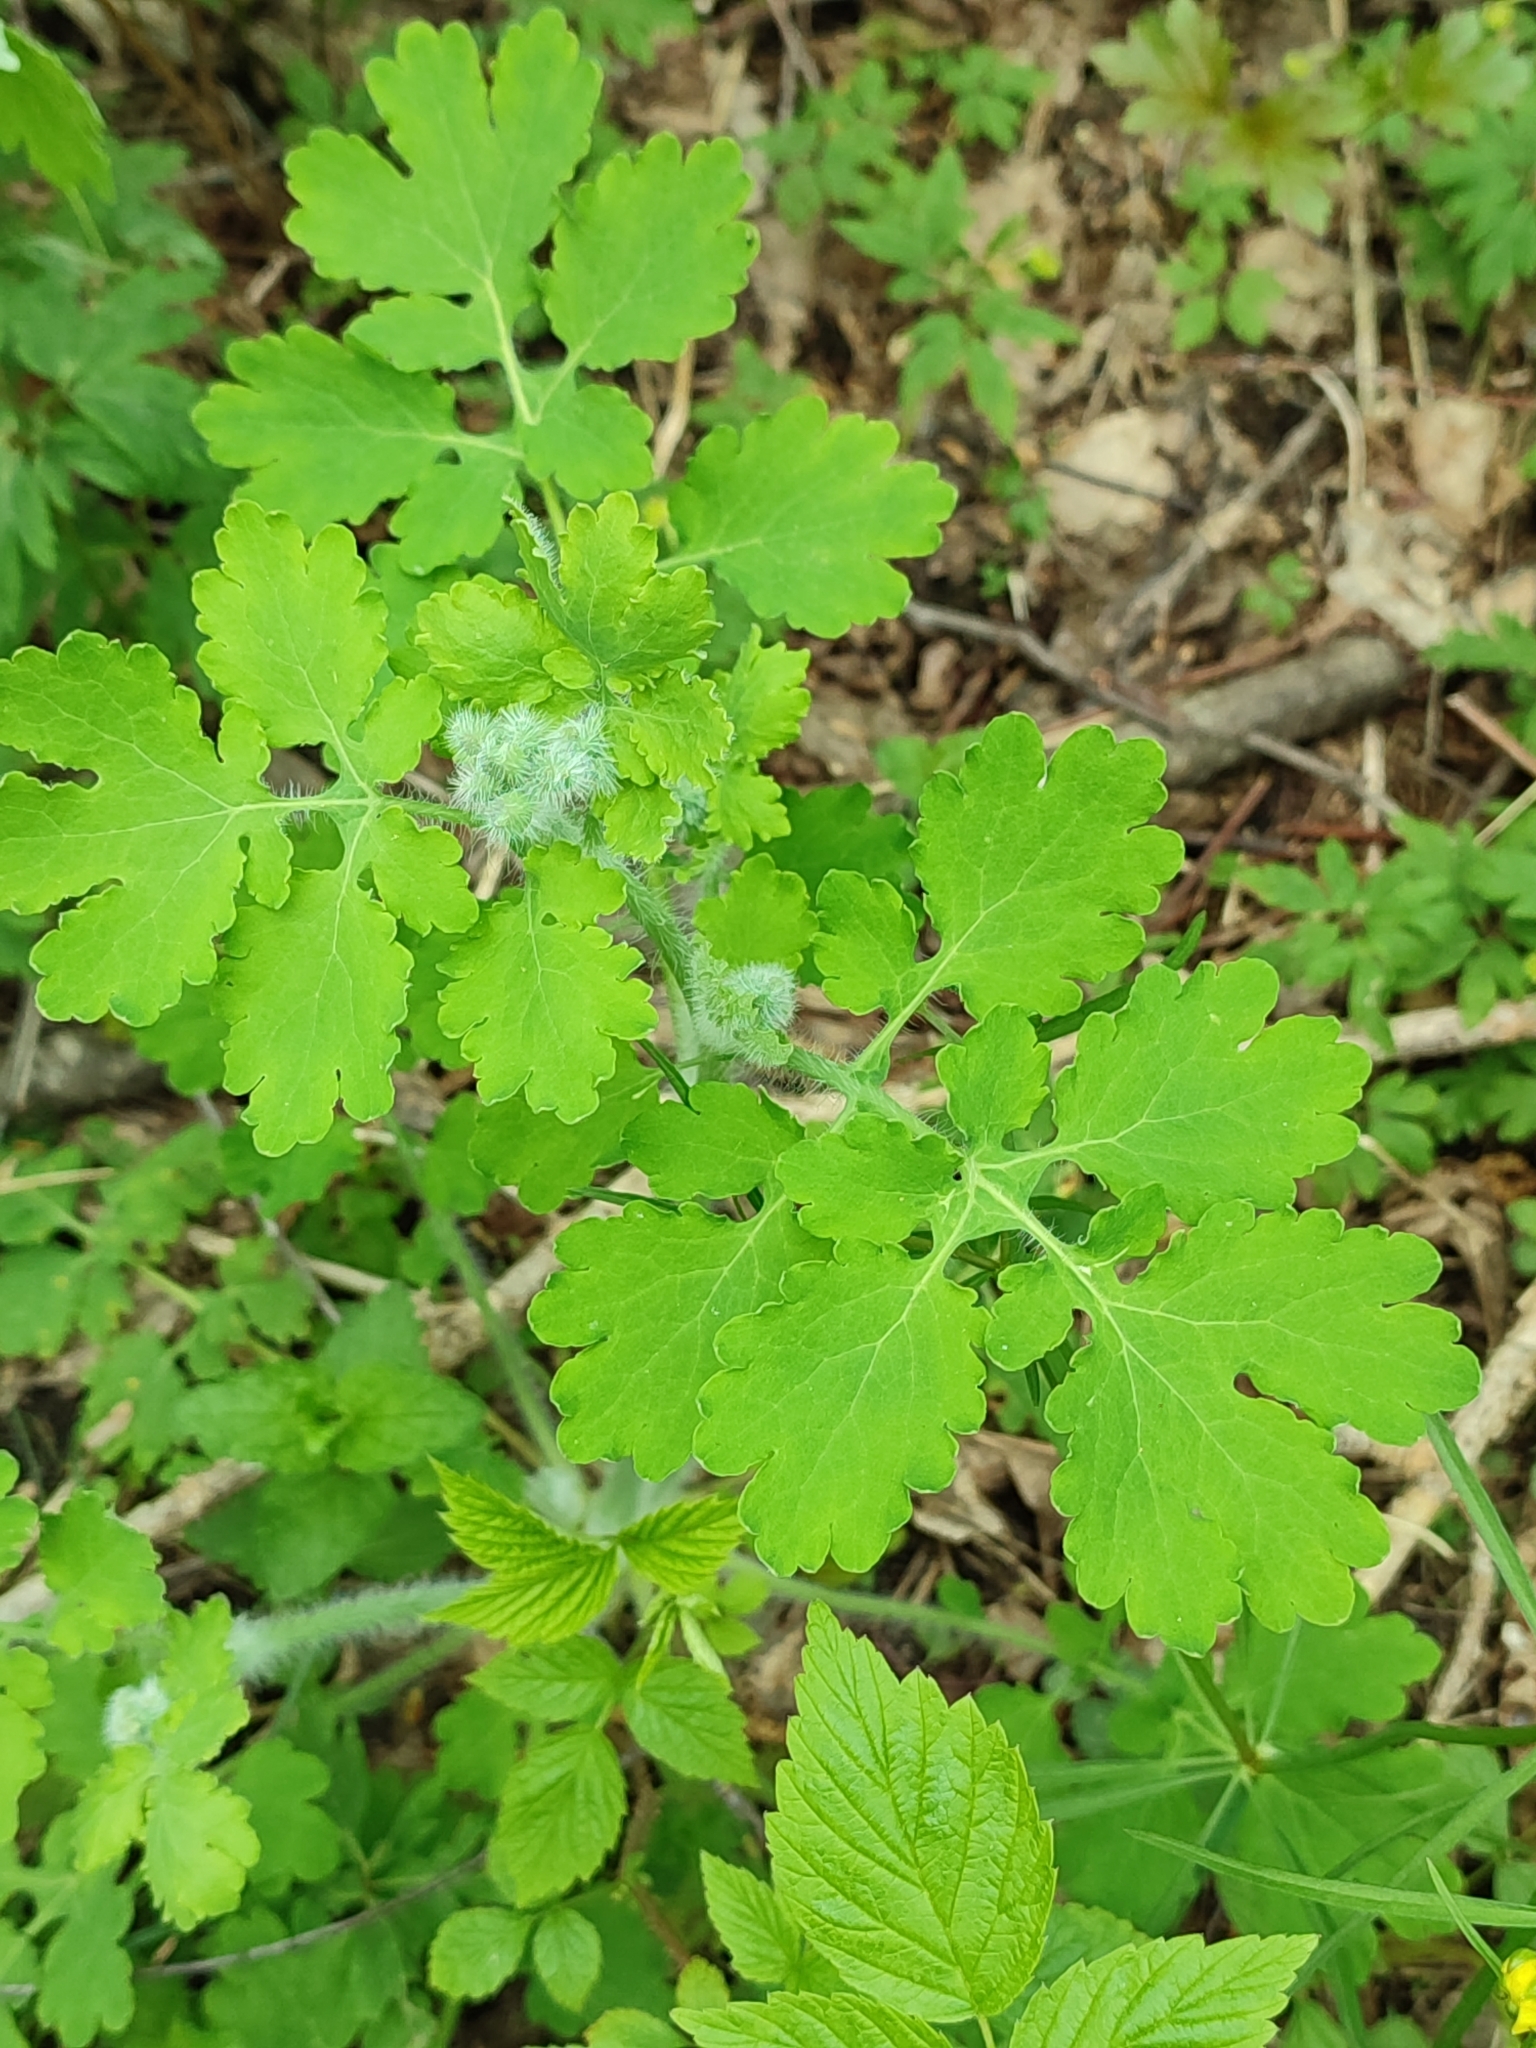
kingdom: Plantae
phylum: Tracheophyta
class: Magnoliopsida
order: Ranunculales
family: Papaveraceae
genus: Chelidonium
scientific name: Chelidonium majus
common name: Greater celandine
